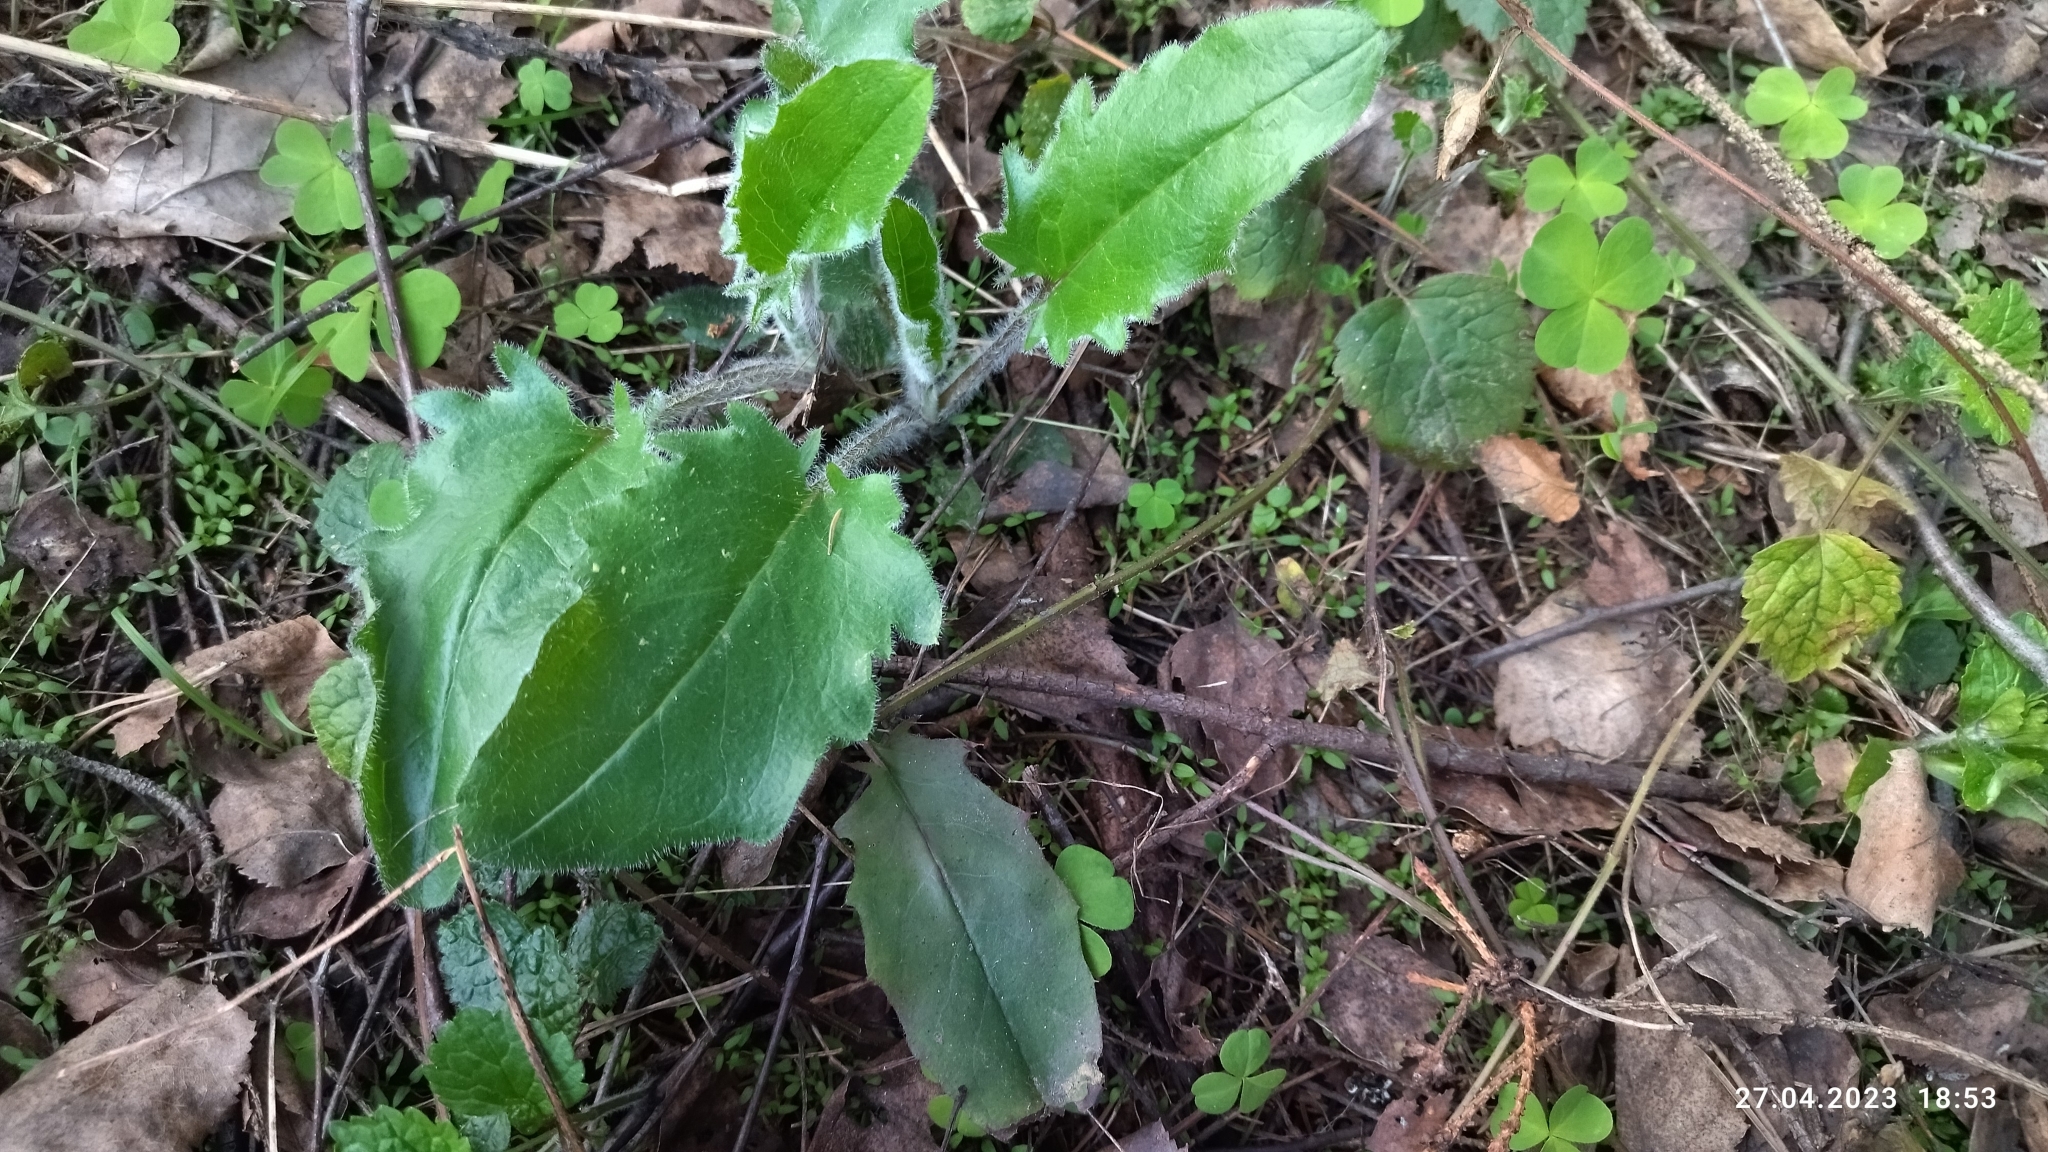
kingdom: Plantae
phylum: Tracheophyta
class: Magnoliopsida
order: Asterales
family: Asteraceae
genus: Hieracium
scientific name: Hieracium murorum
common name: Wall hawkweed
